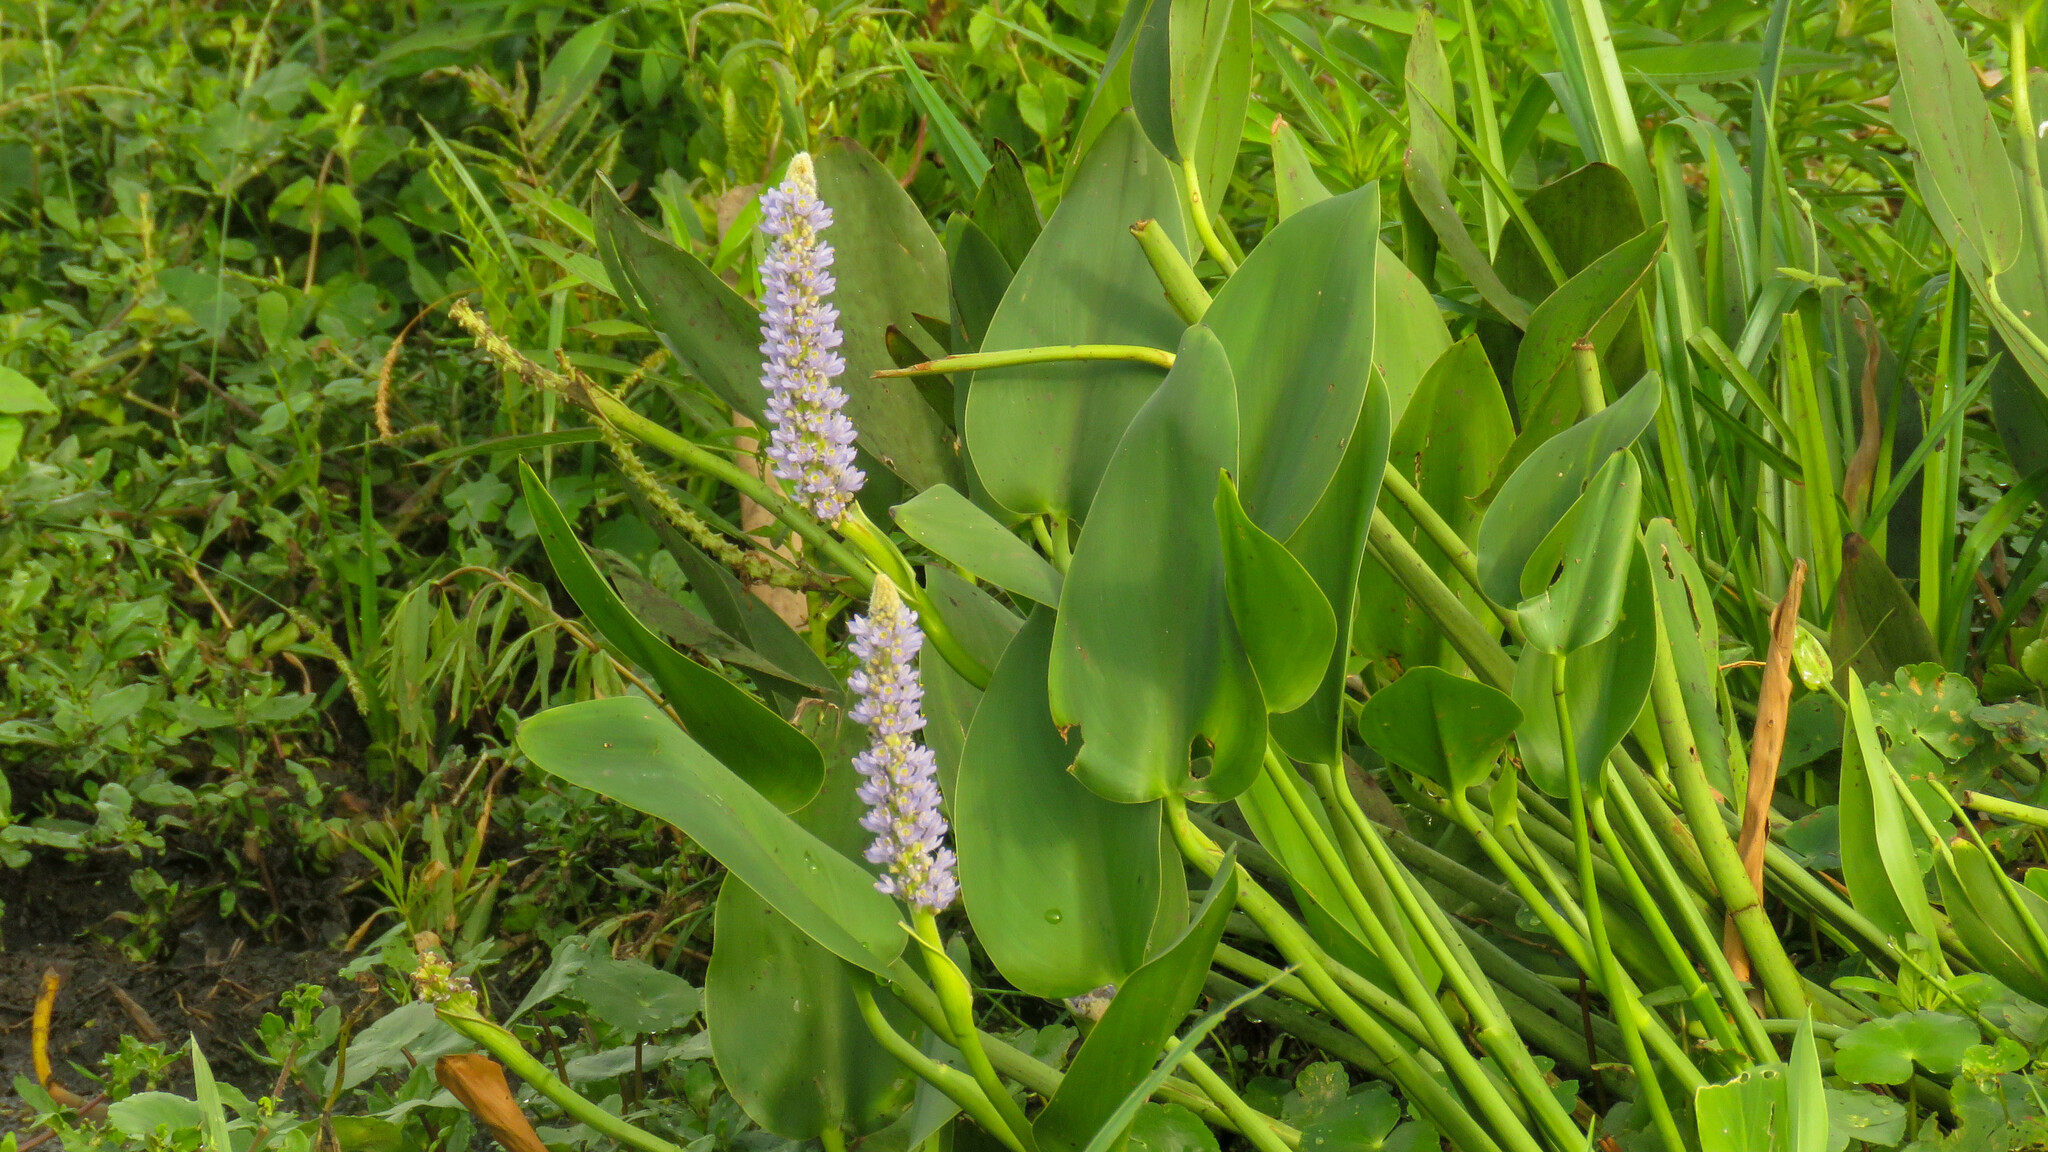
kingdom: Plantae
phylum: Tracheophyta
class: Liliopsida
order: Commelinales
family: Pontederiaceae
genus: Pontederia
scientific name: Pontederia cordata
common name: Pickerelweed
